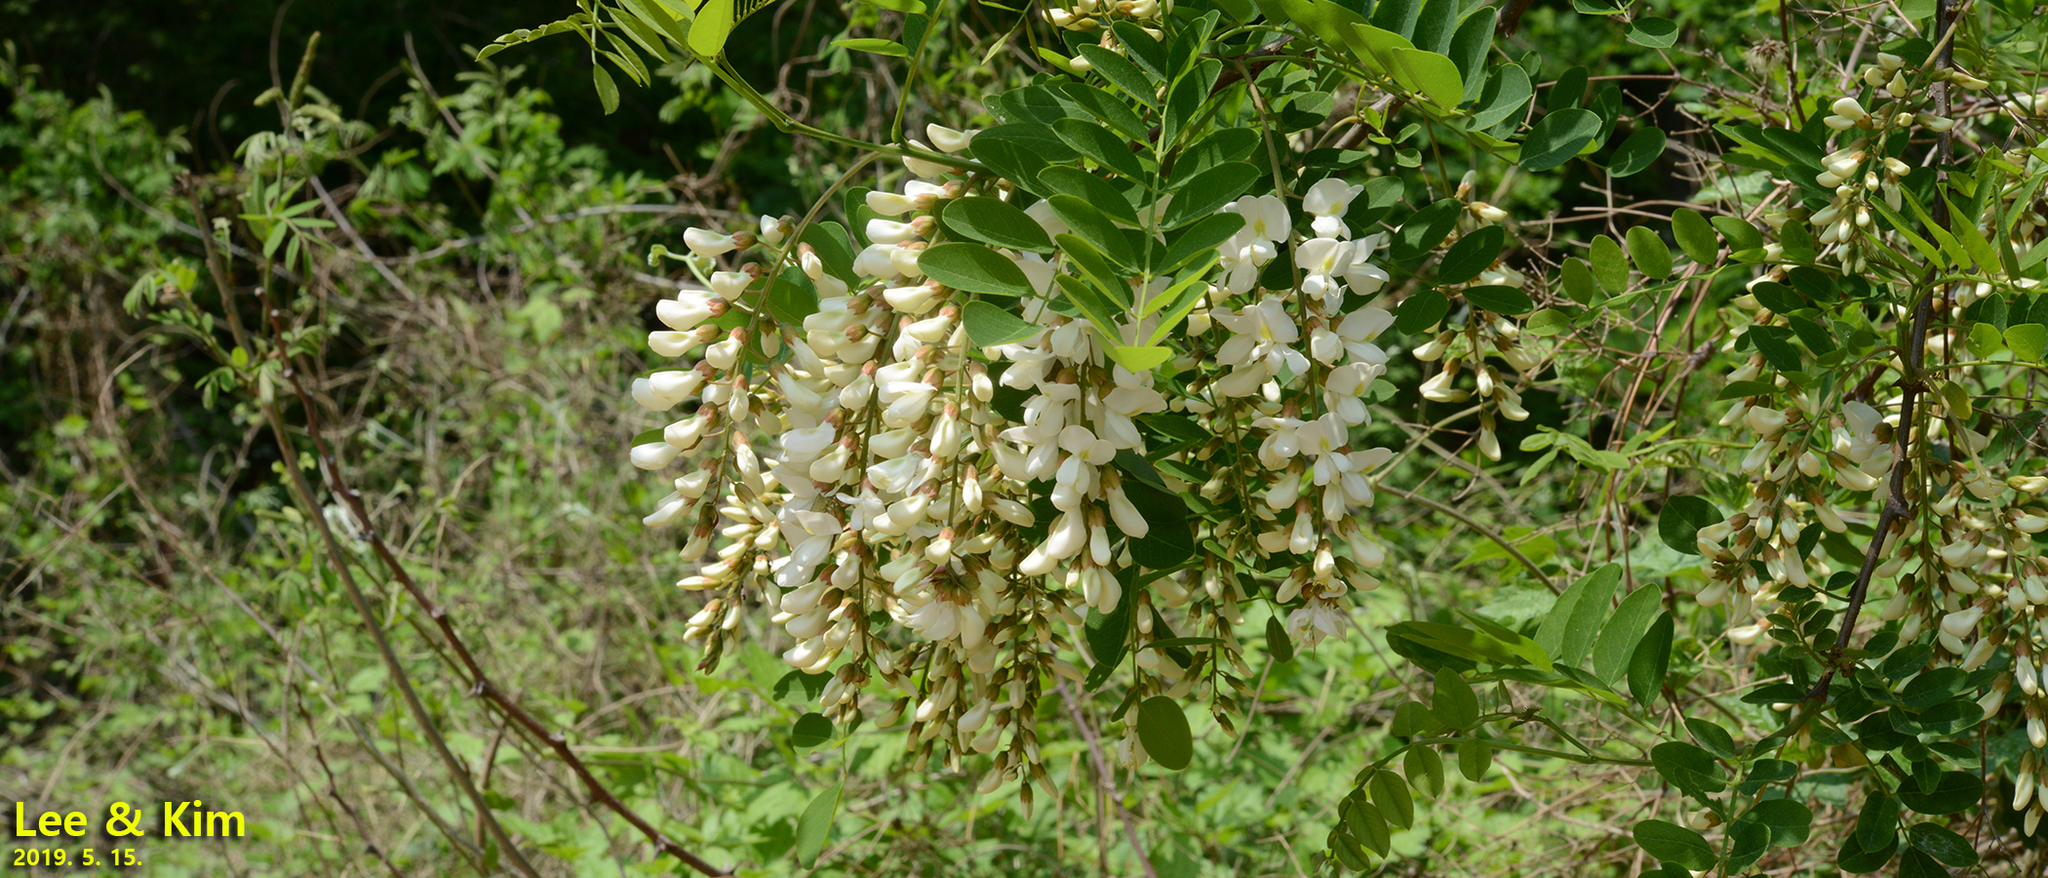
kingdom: Plantae
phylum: Tracheophyta
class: Magnoliopsida
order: Fabales
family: Fabaceae
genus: Robinia
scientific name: Robinia pseudoacacia
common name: Black locust
